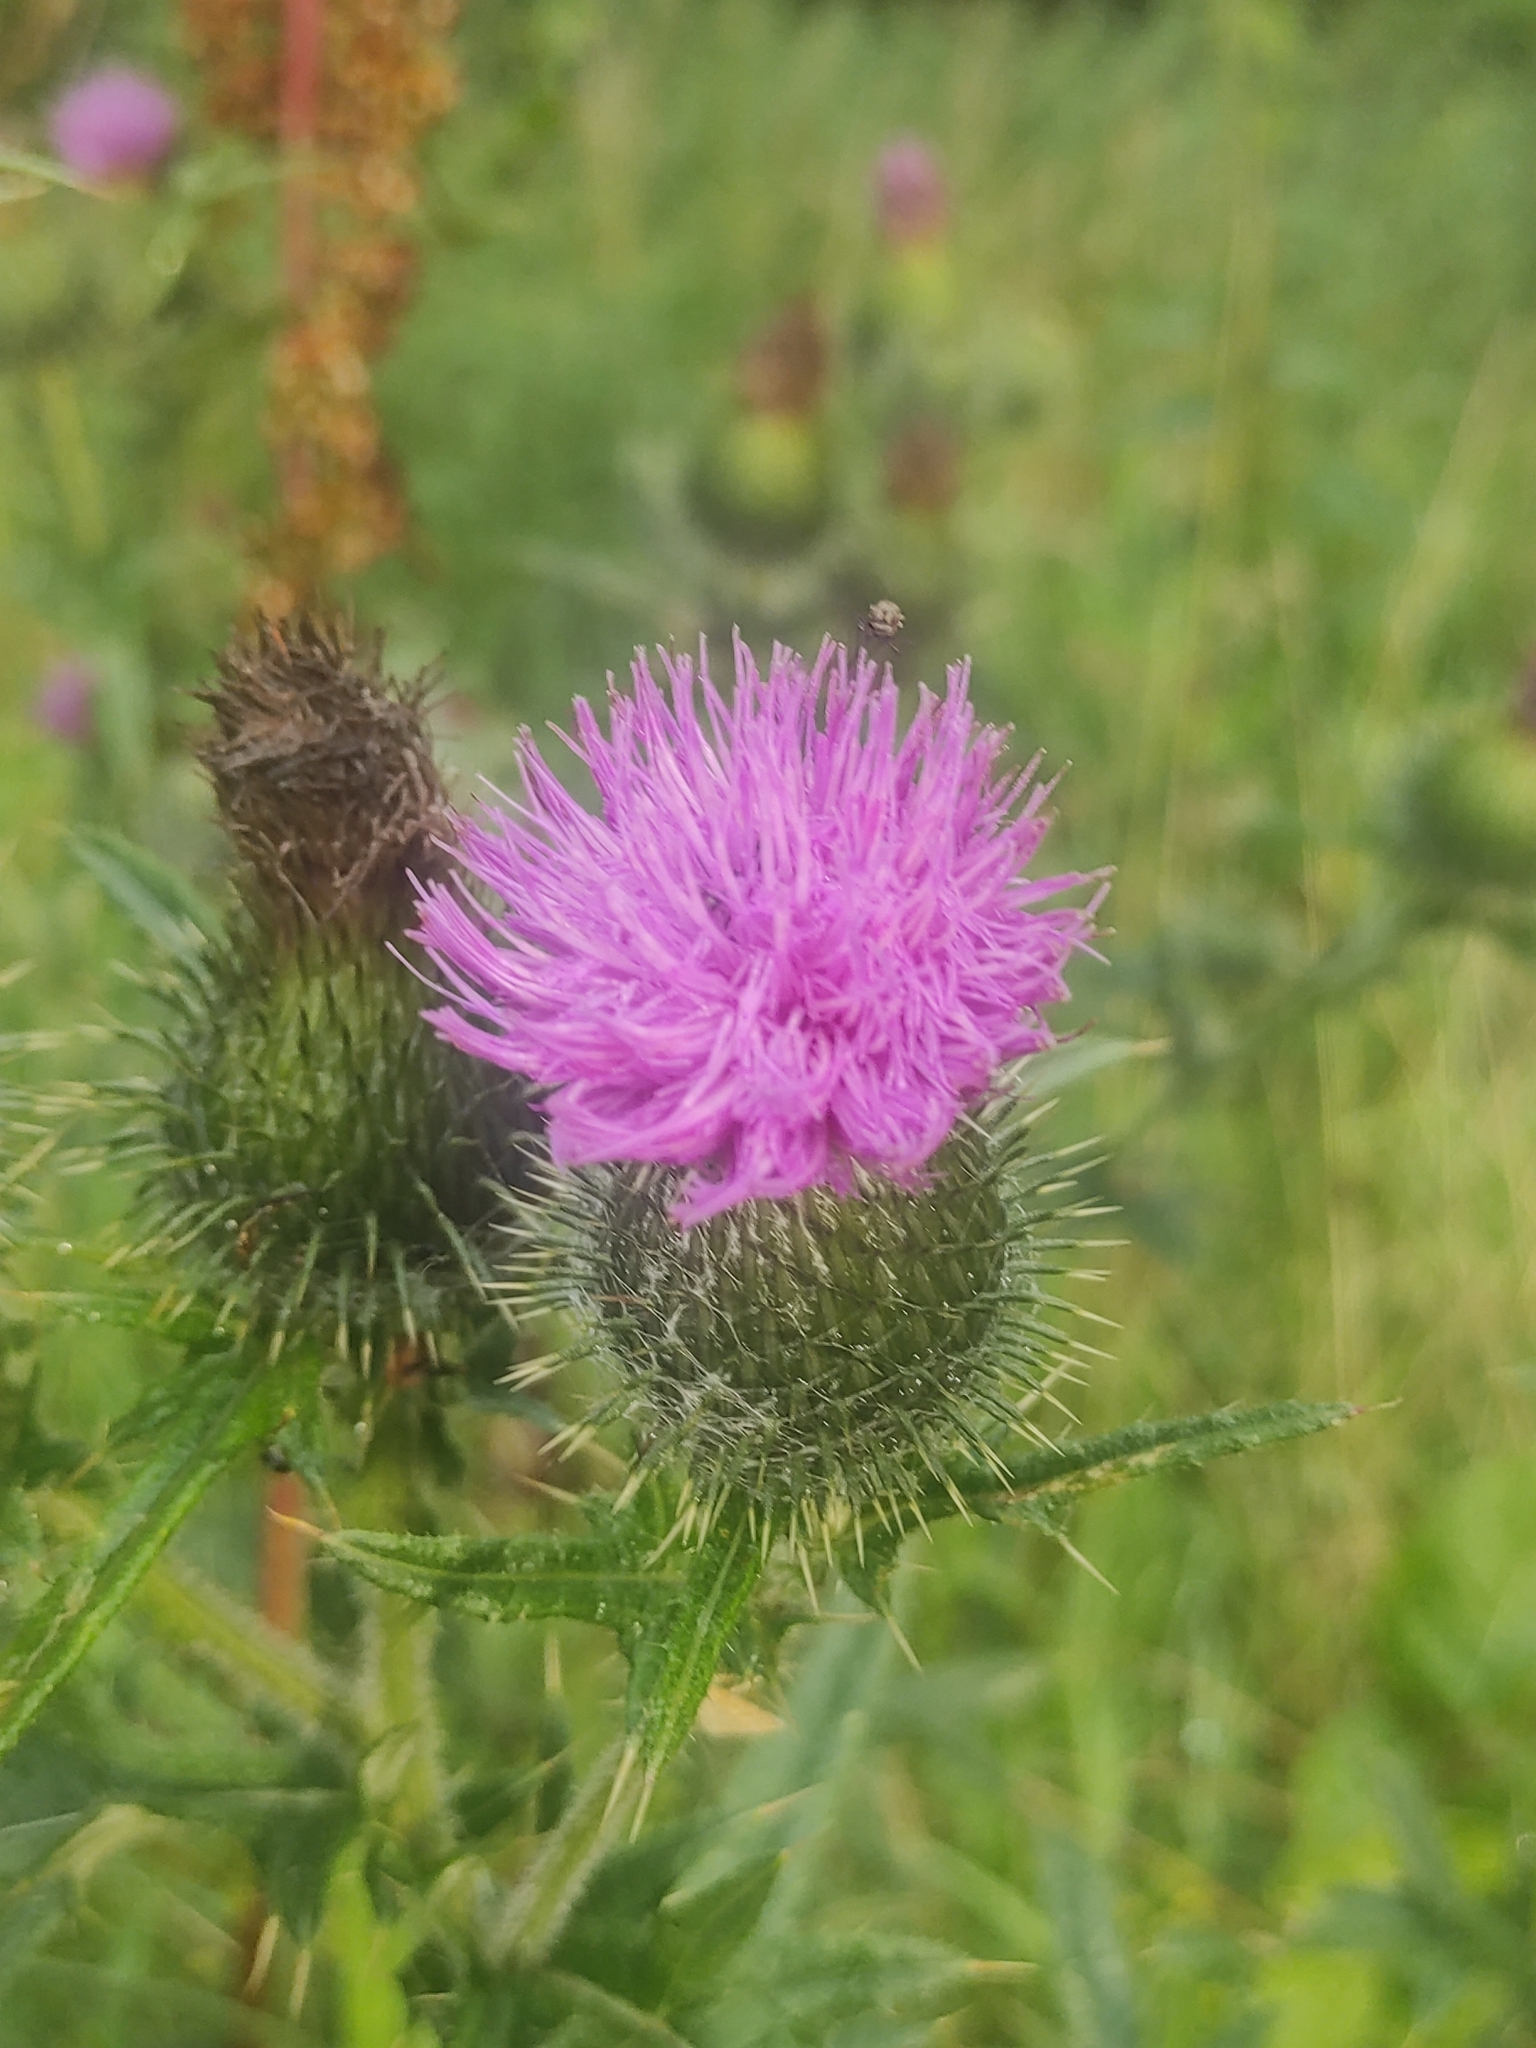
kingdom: Plantae
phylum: Tracheophyta
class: Magnoliopsida
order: Asterales
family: Asteraceae
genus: Cirsium
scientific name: Cirsium vulgare
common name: Bull thistle
